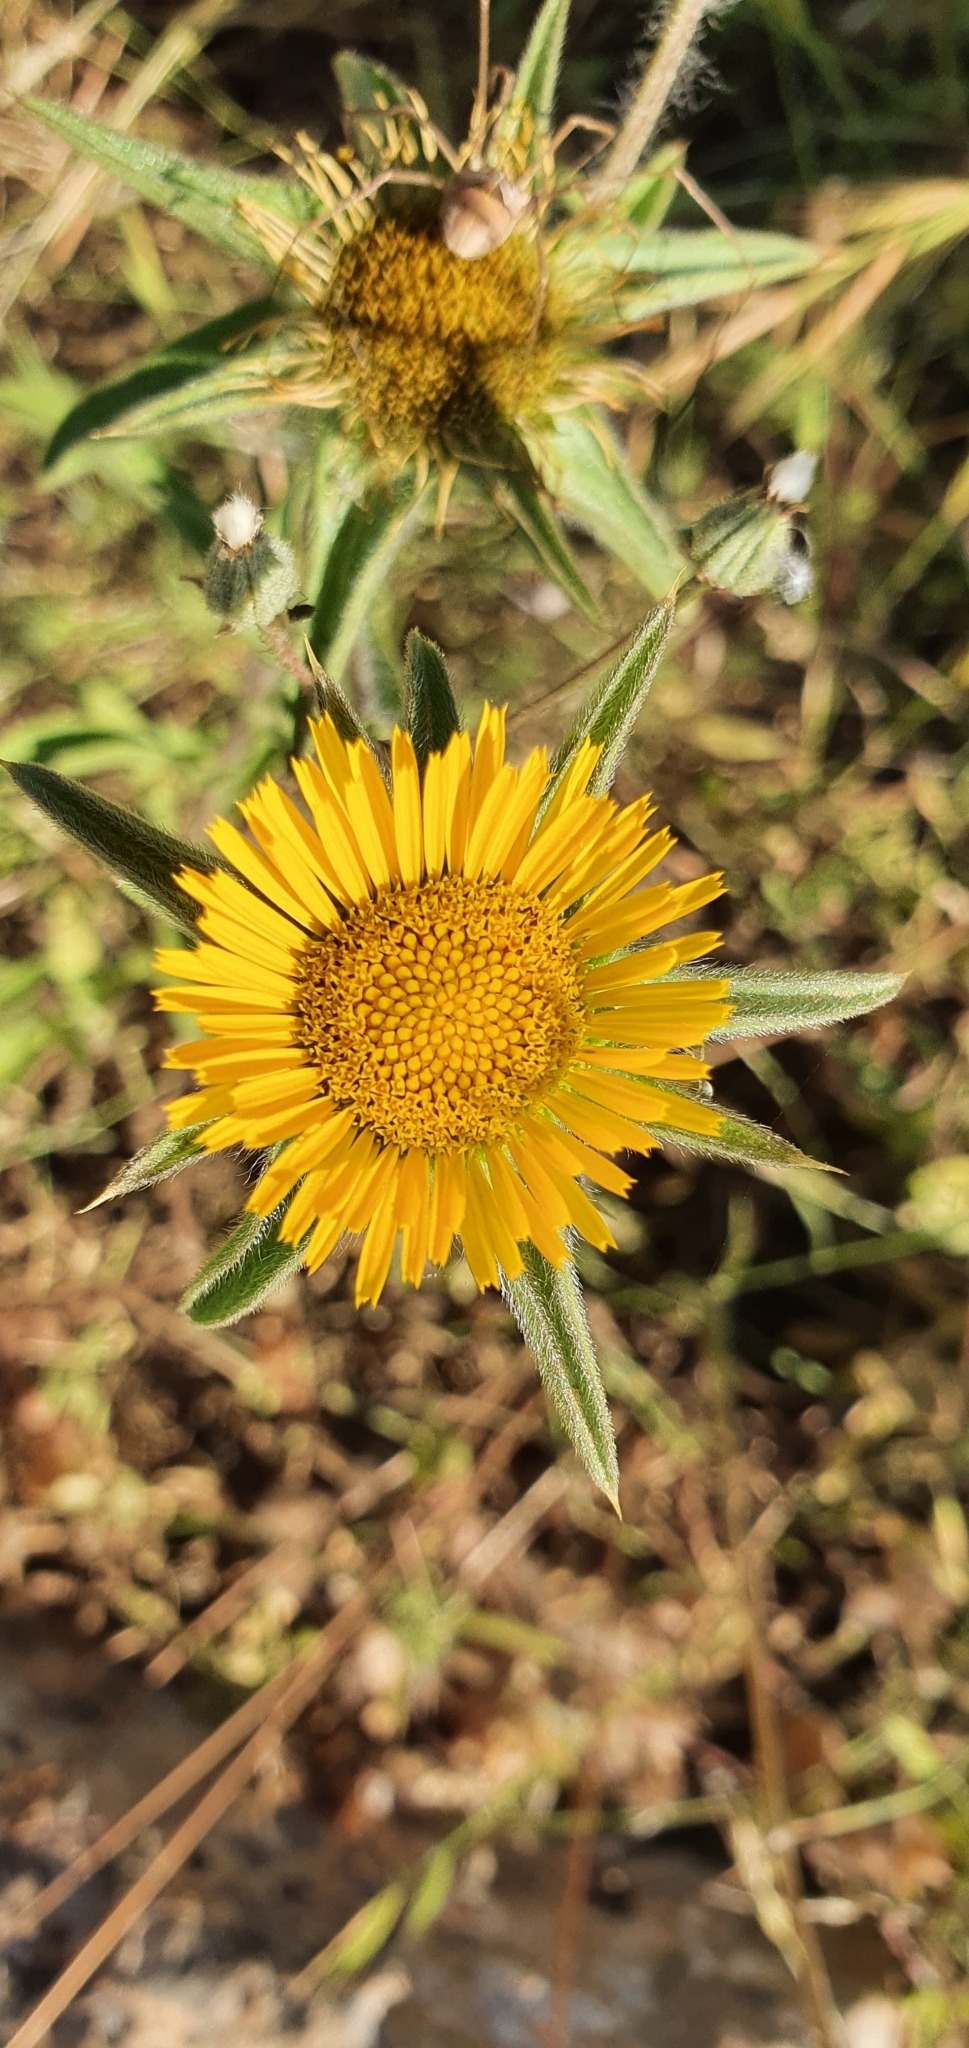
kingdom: Plantae
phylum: Tracheophyta
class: Magnoliopsida
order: Asterales
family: Asteraceae
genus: Pallenis
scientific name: Pallenis spinosa
